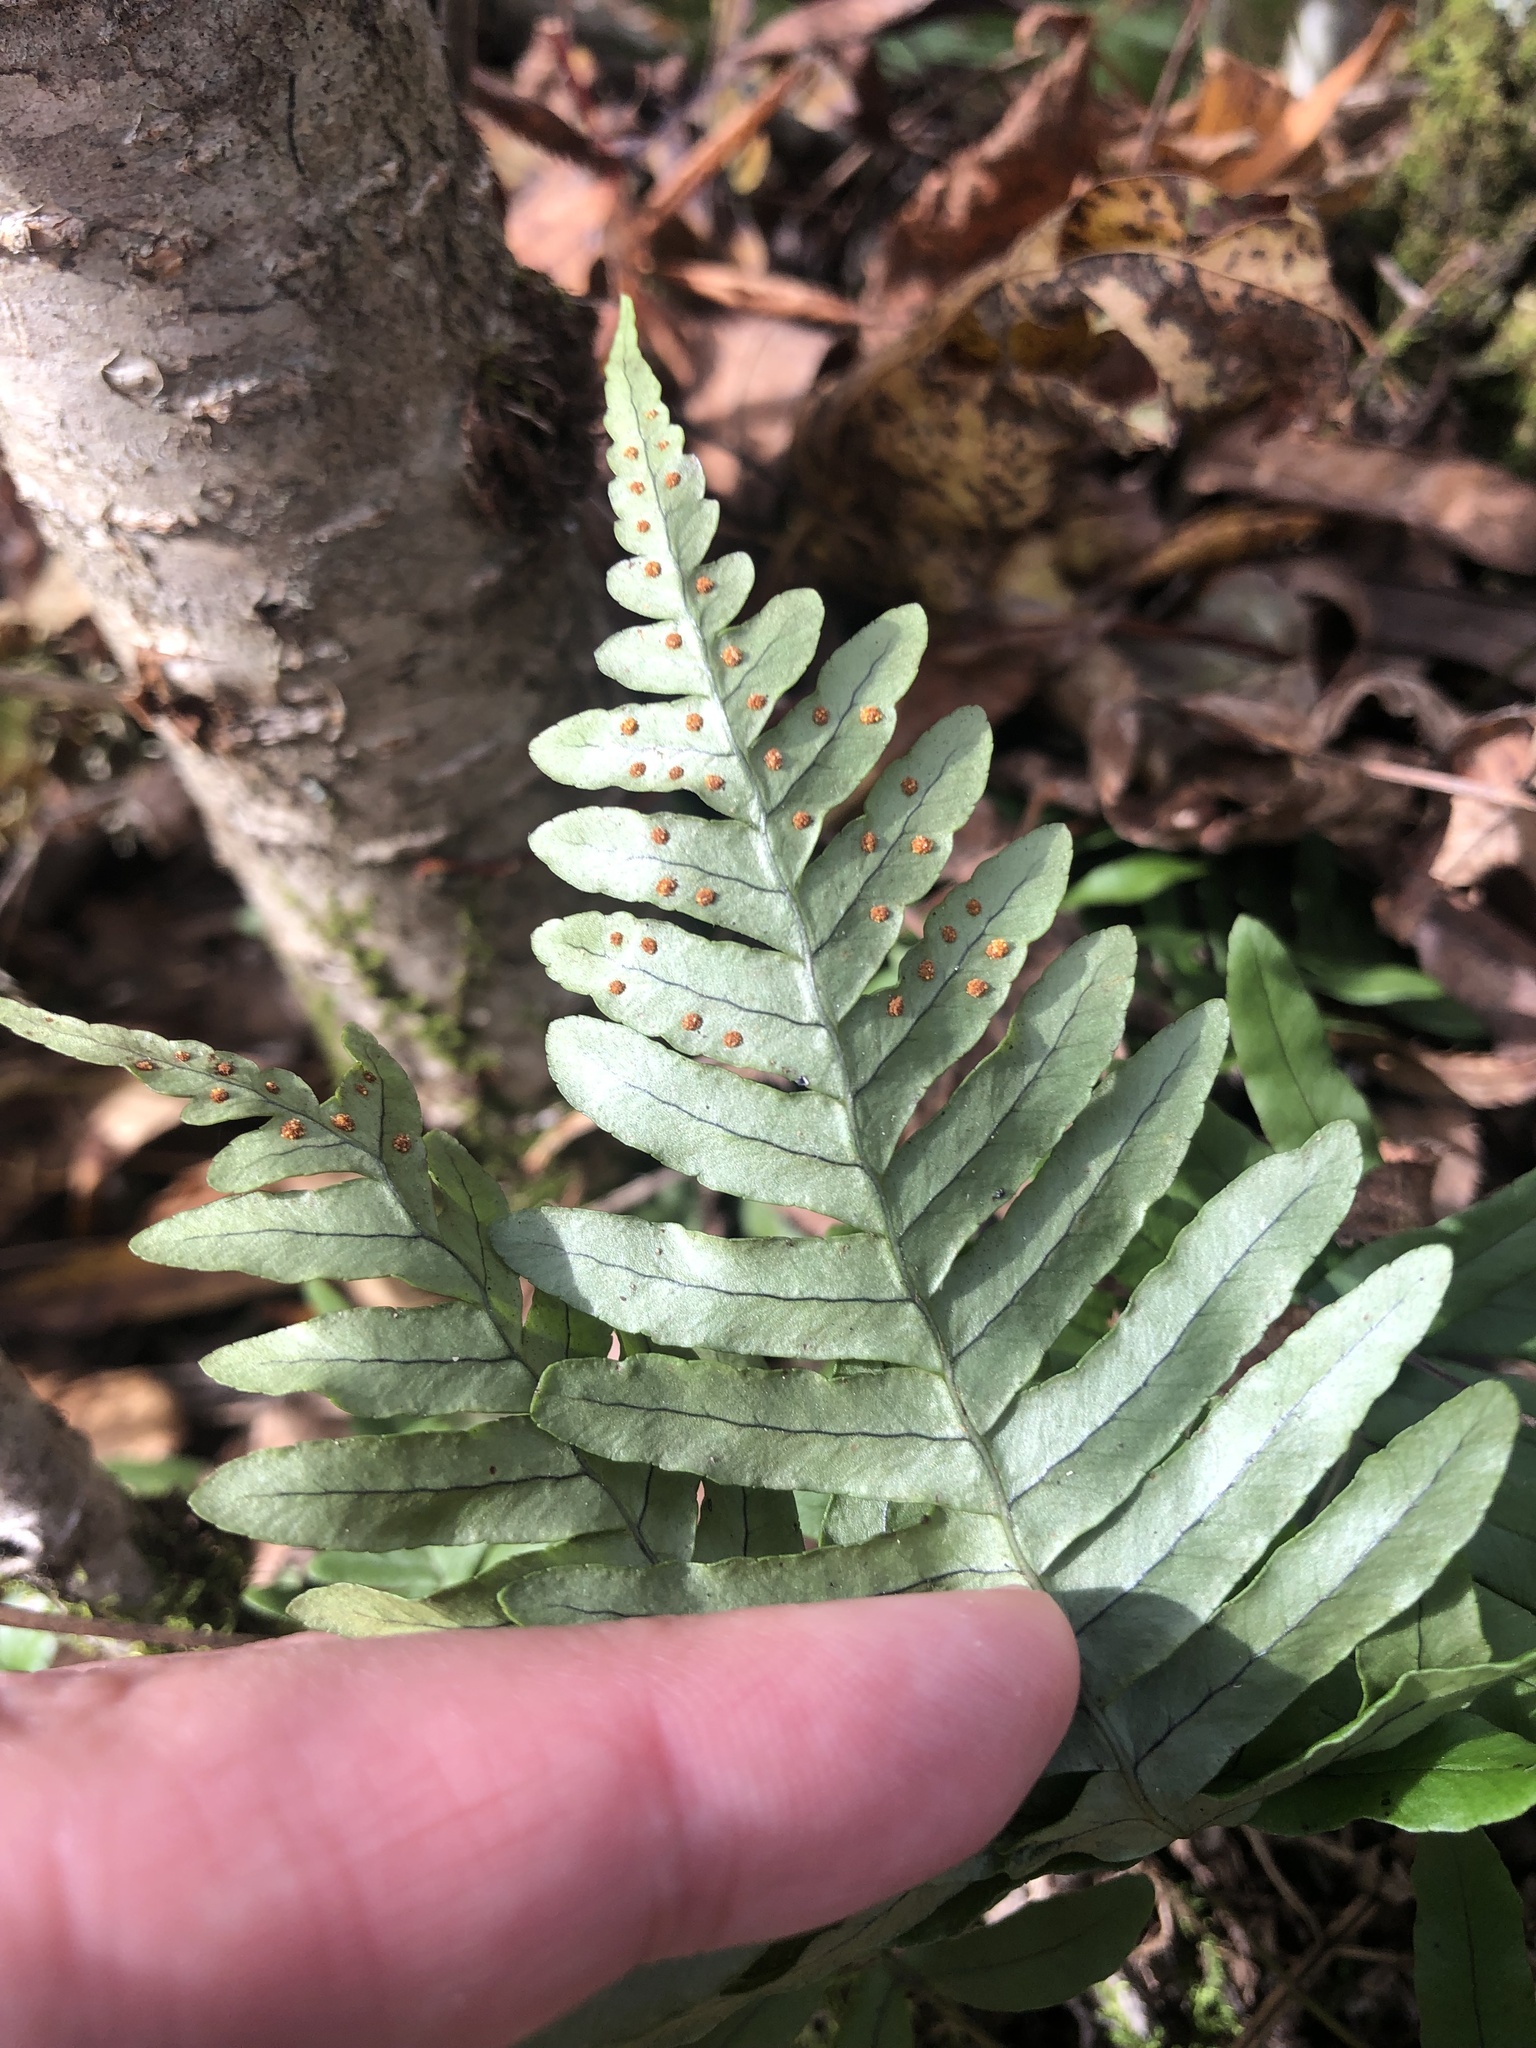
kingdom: Plantae
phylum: Tracheophyta
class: Polypodiopsida
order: Polypodiales
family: Polypodiaceae
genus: Polypodium
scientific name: Polypodium appalachianum
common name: Appalachian polypody
